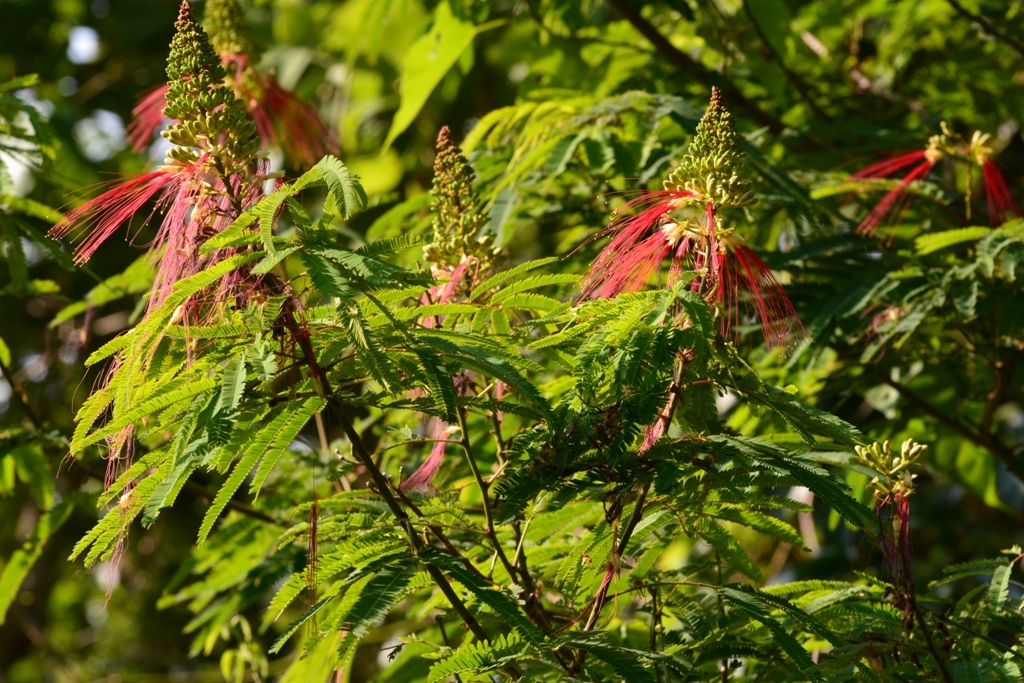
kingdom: Plantae
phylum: Tracheophyta
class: Magnoliopsida
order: Fabales
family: Fabaceae
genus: Calliandra
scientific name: Calliandra houstoniana
